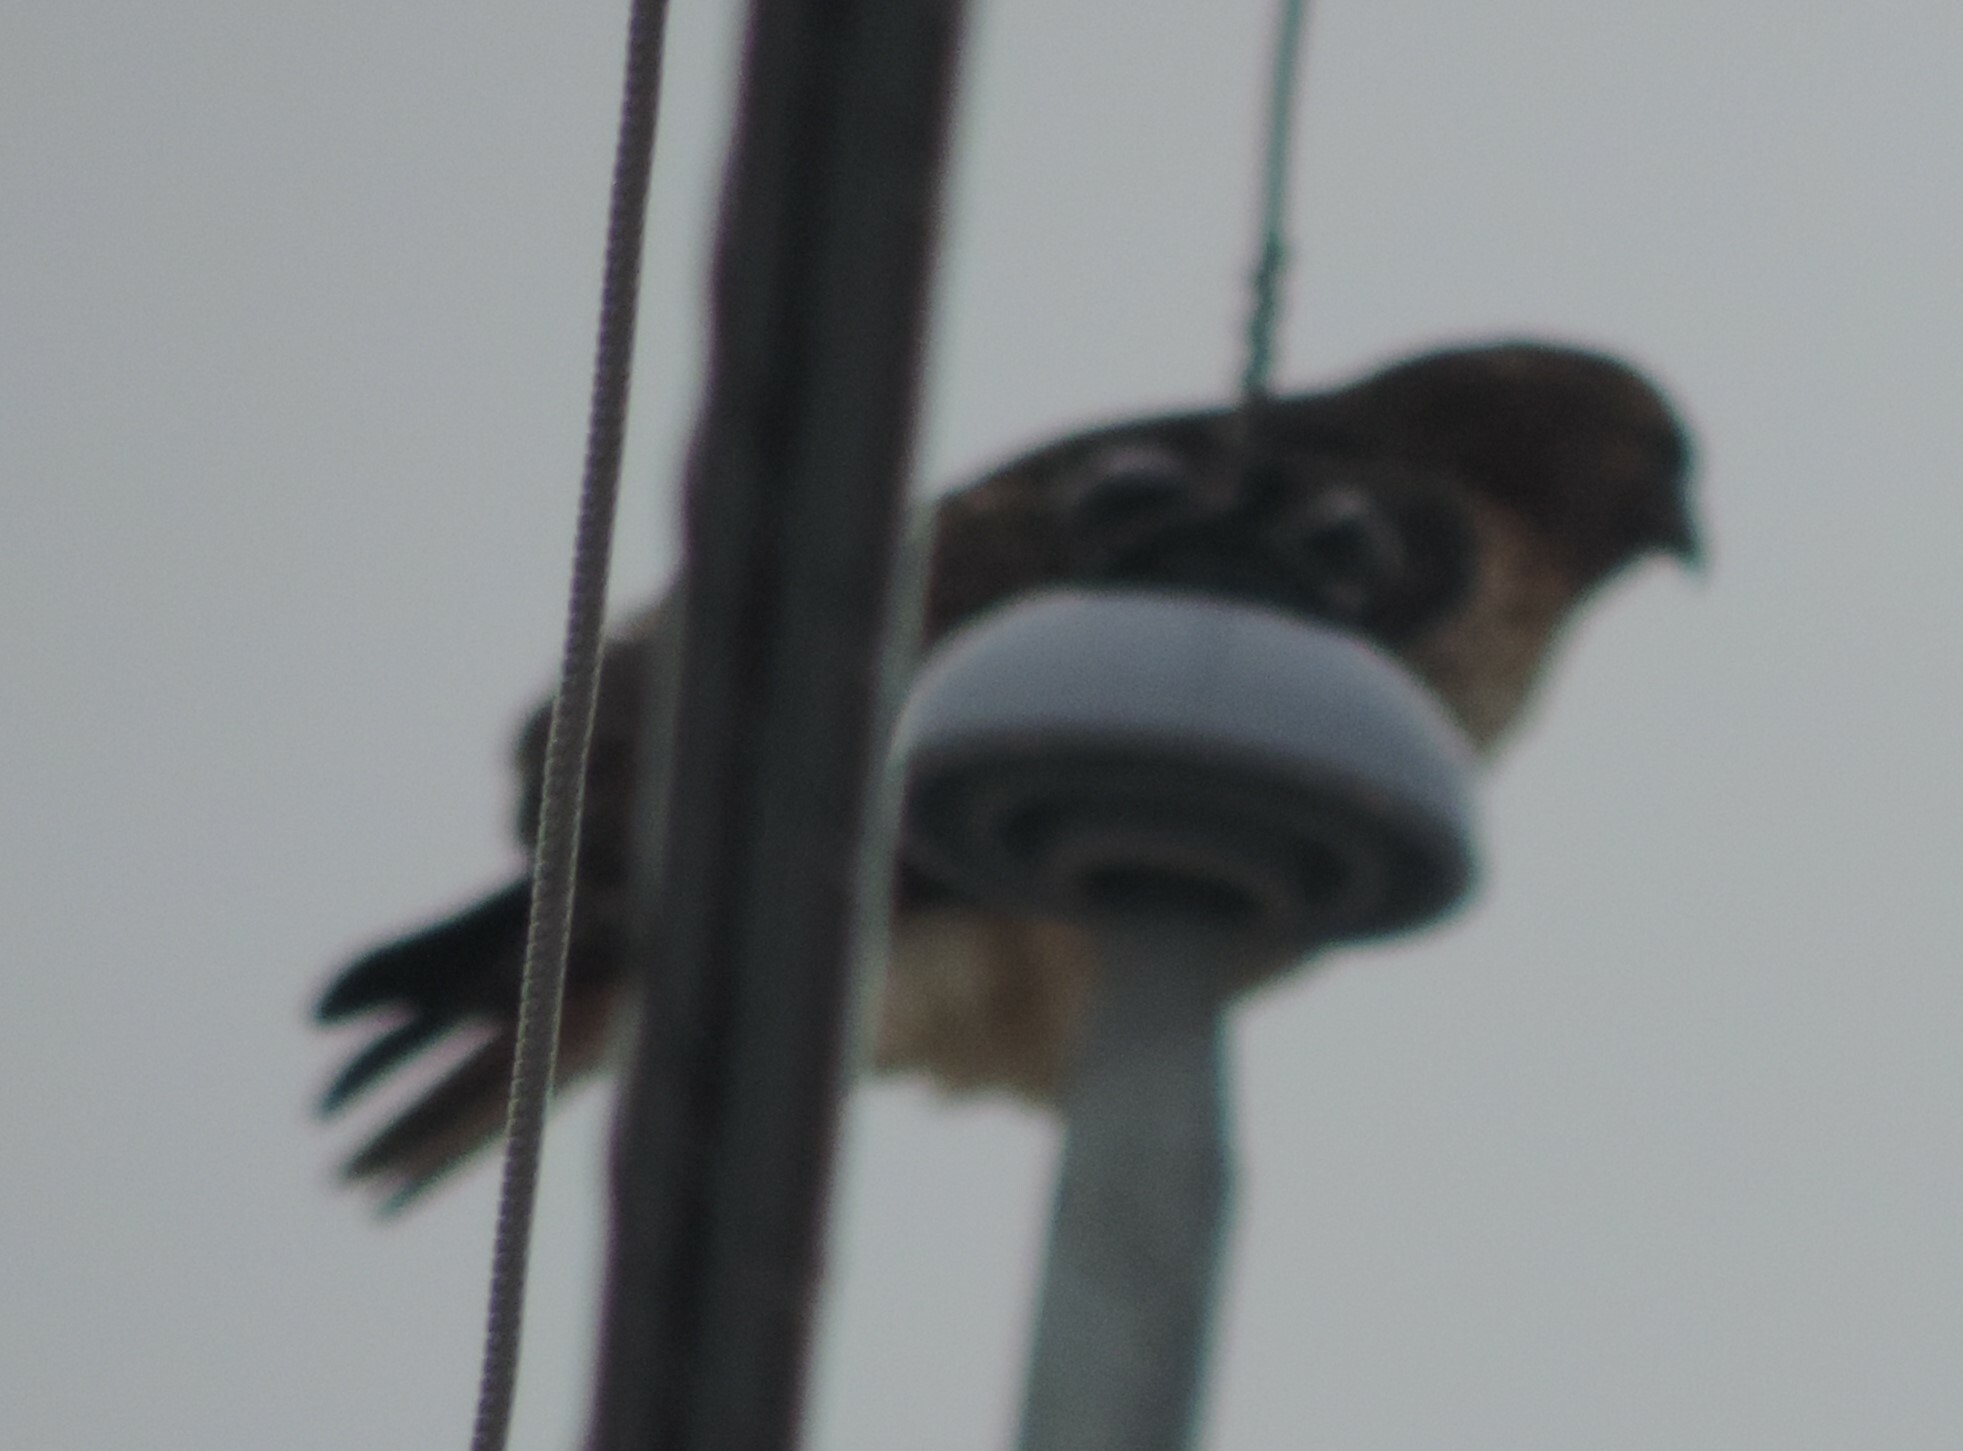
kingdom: Animalia
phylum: Chordata
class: Aves
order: Accipitriformes
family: Accipitridae
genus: Buteo
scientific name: Buteo jamaicensis
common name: Red-tailed hawk
